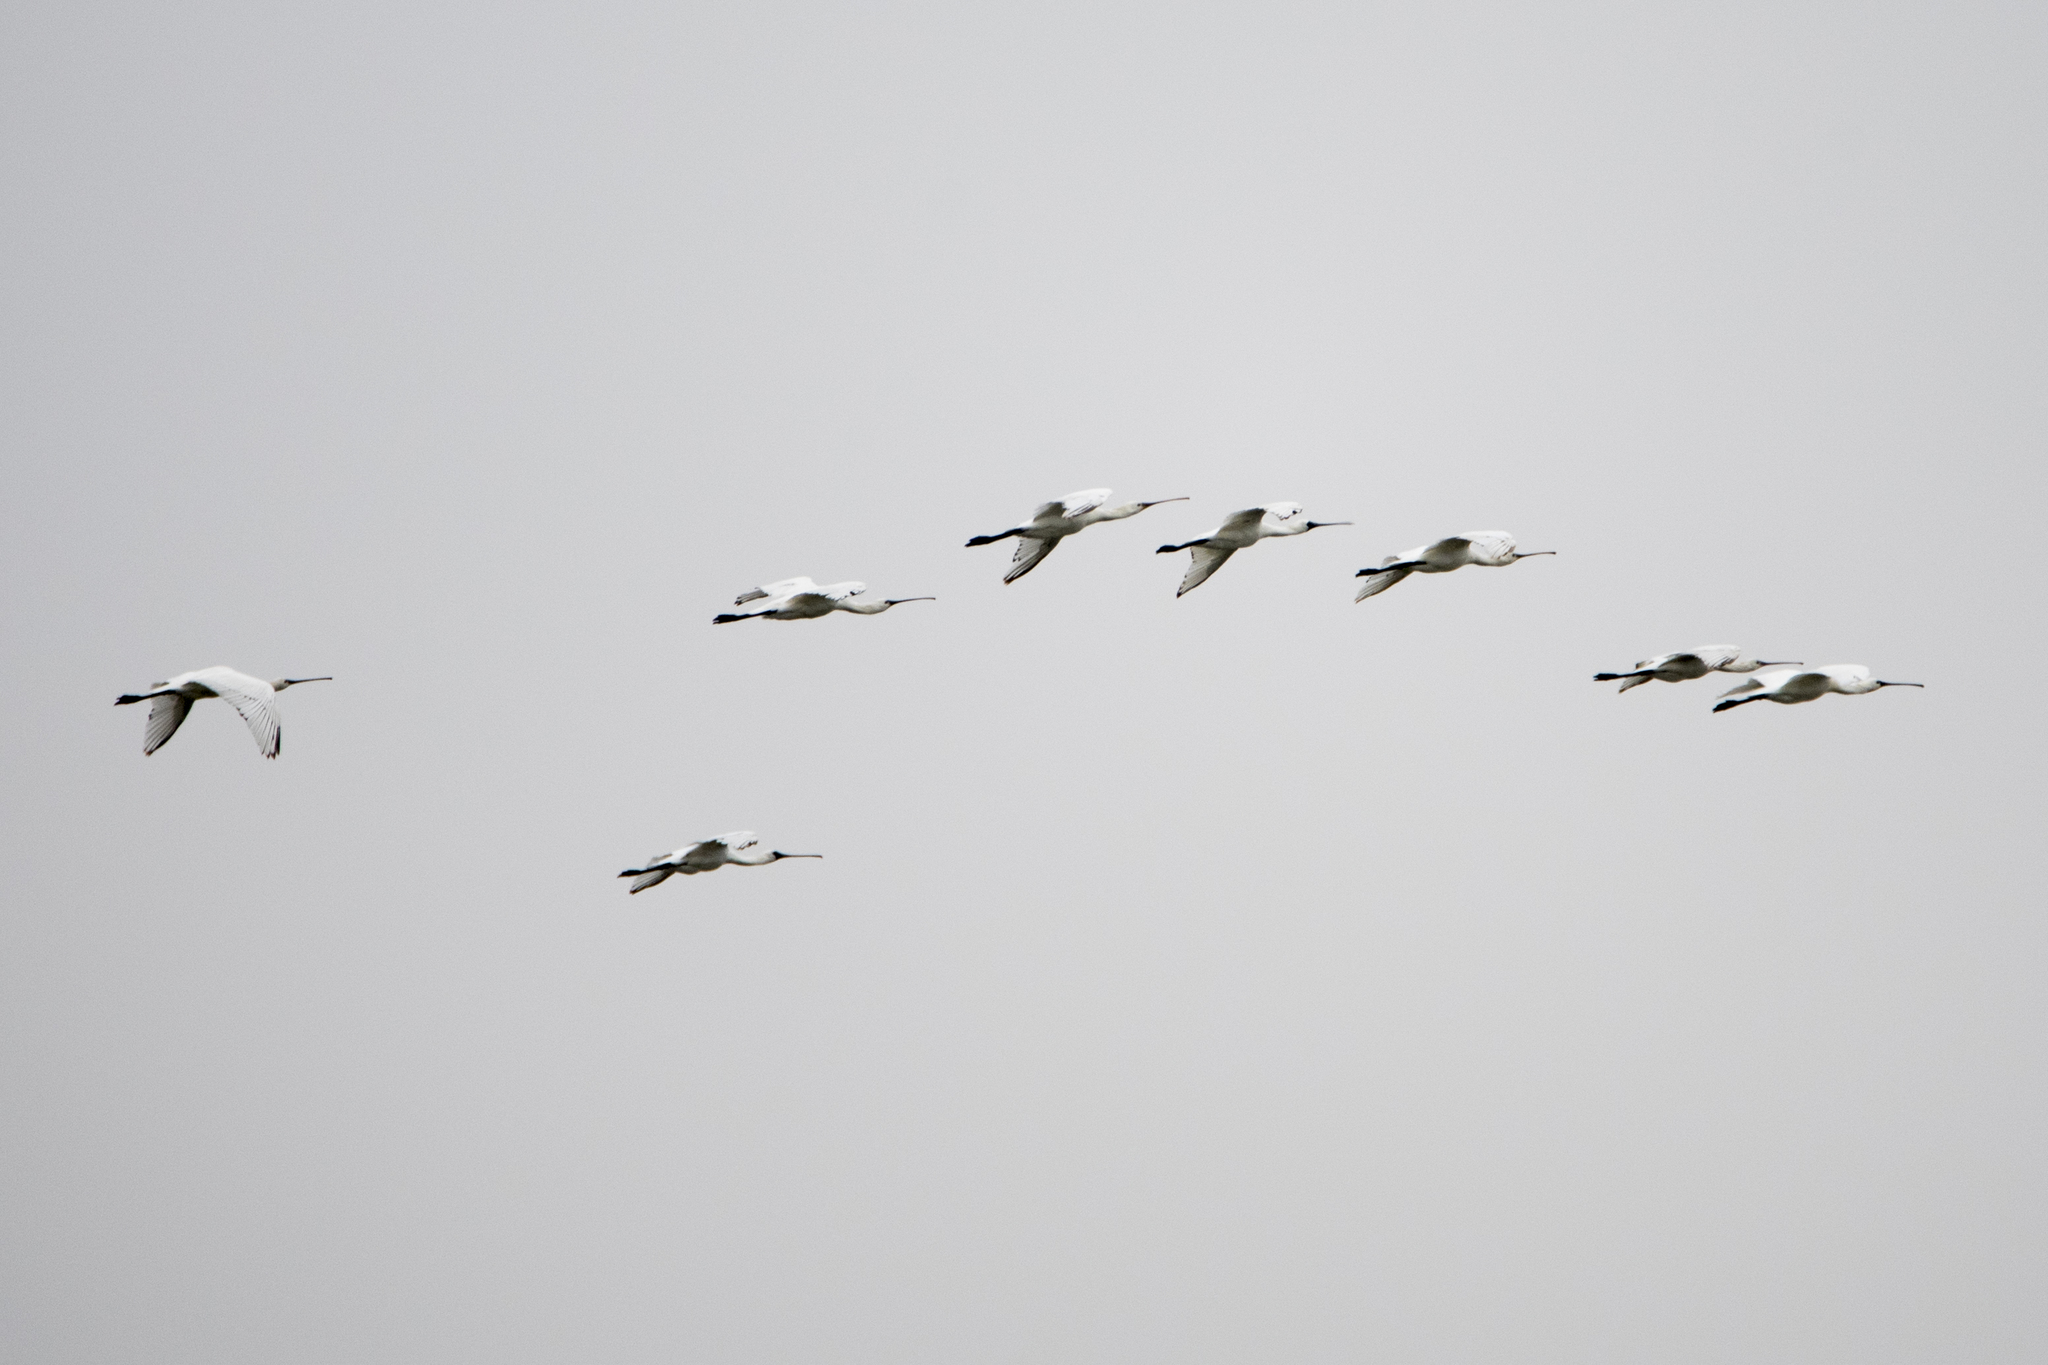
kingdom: Animalia
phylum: Chordata
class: Aves
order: Pelecaniformes
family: Threskiornithidae
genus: Platalea
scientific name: Platalea leucorodia
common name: Eurasian spoonbill
